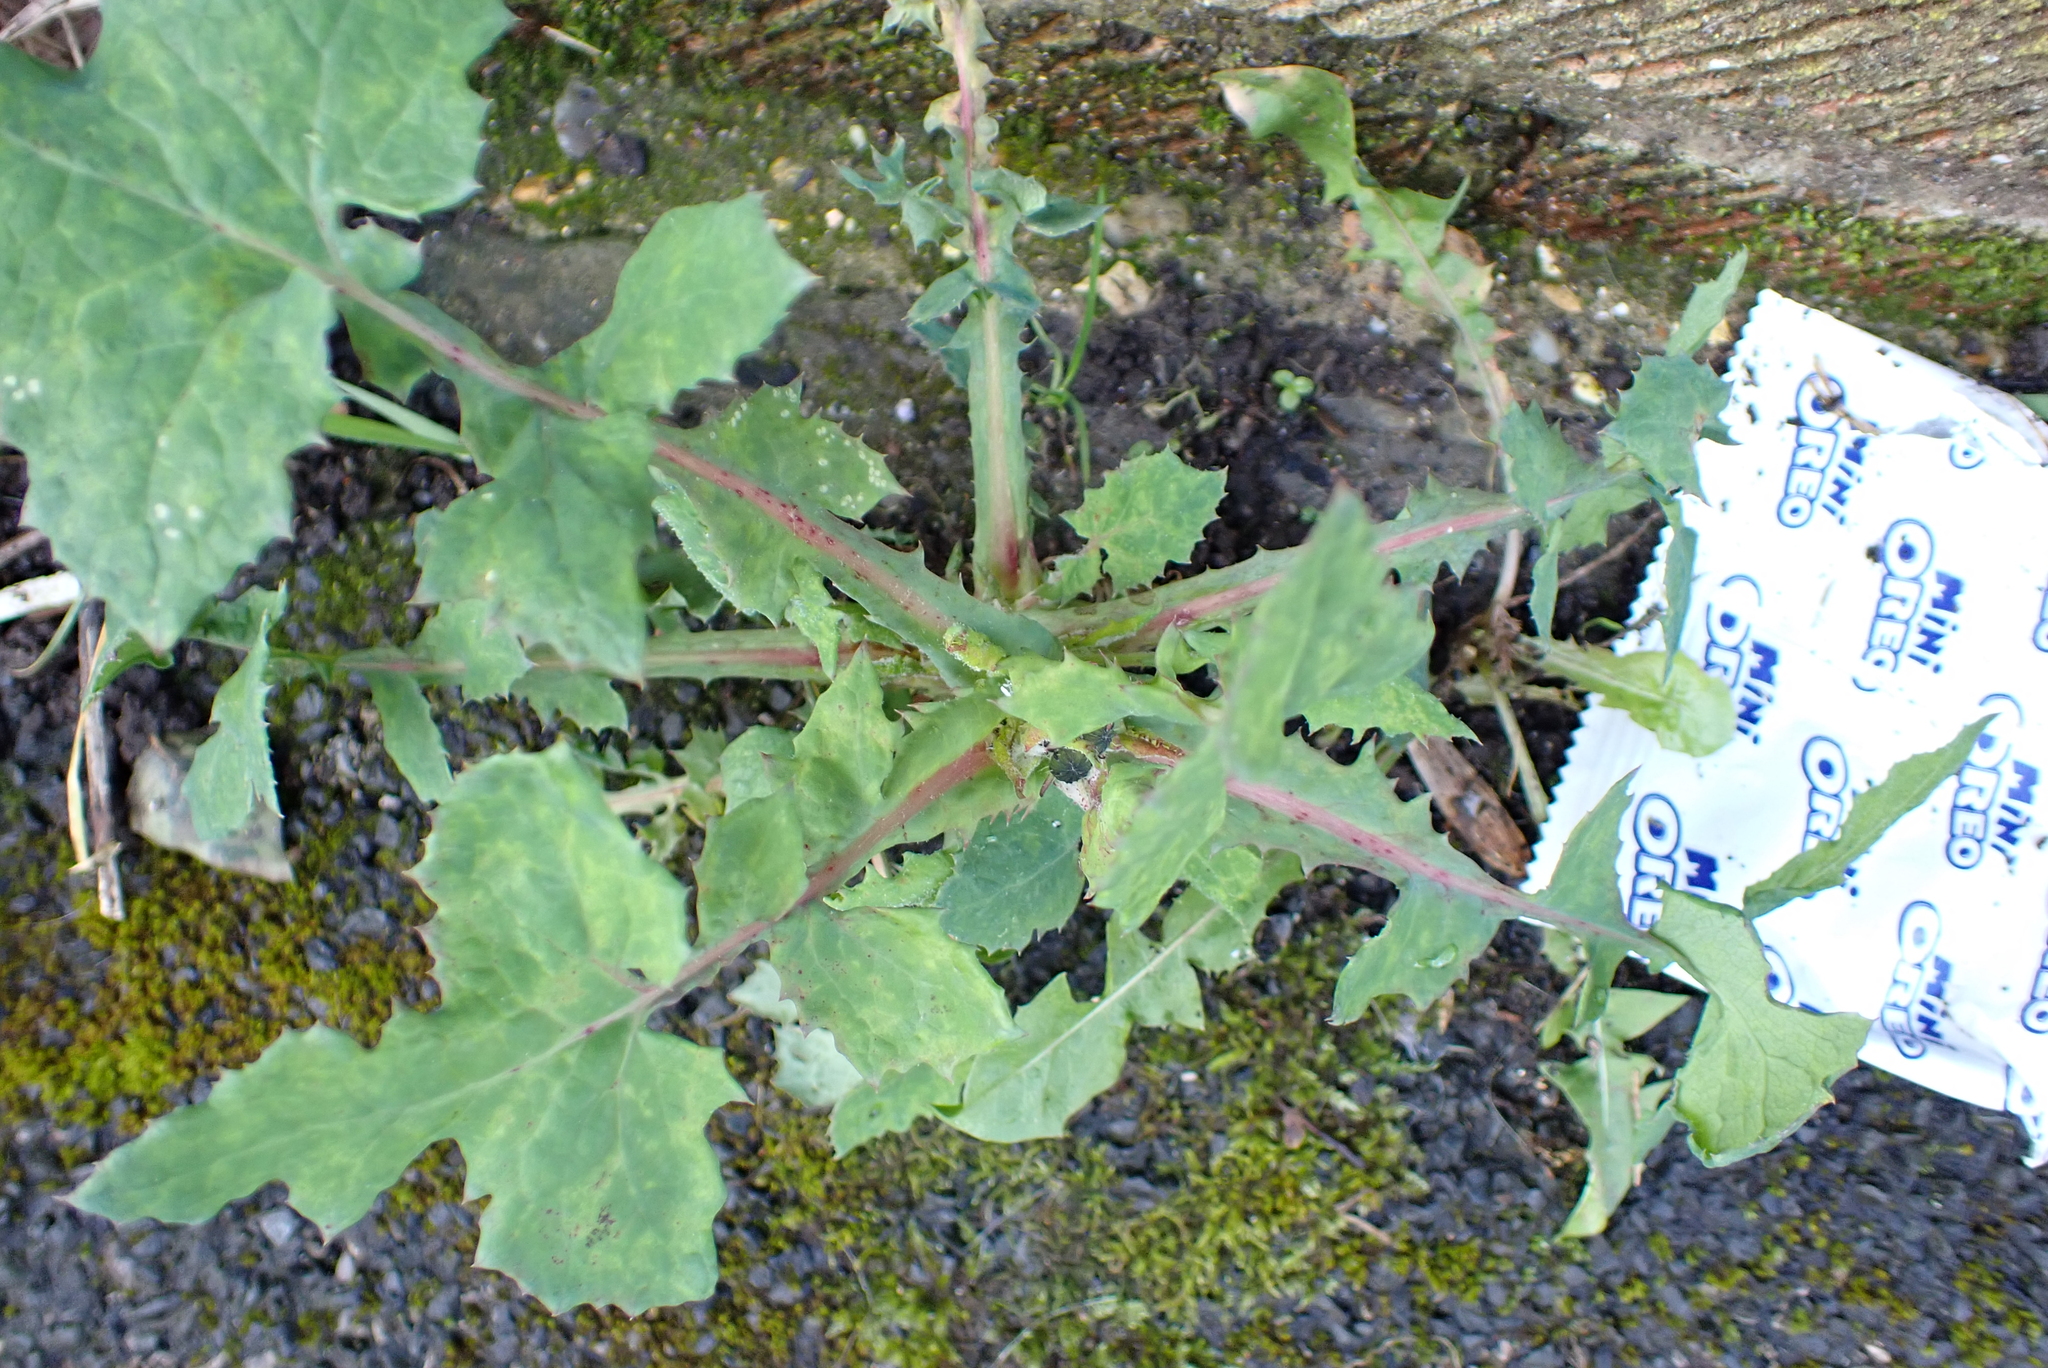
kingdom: Plantae
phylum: Tracheophyta
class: Magnoliopsida
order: Asterales
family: Asteraceae
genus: Sonchus
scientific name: Sonchus oleraceus
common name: Common sowthistle
